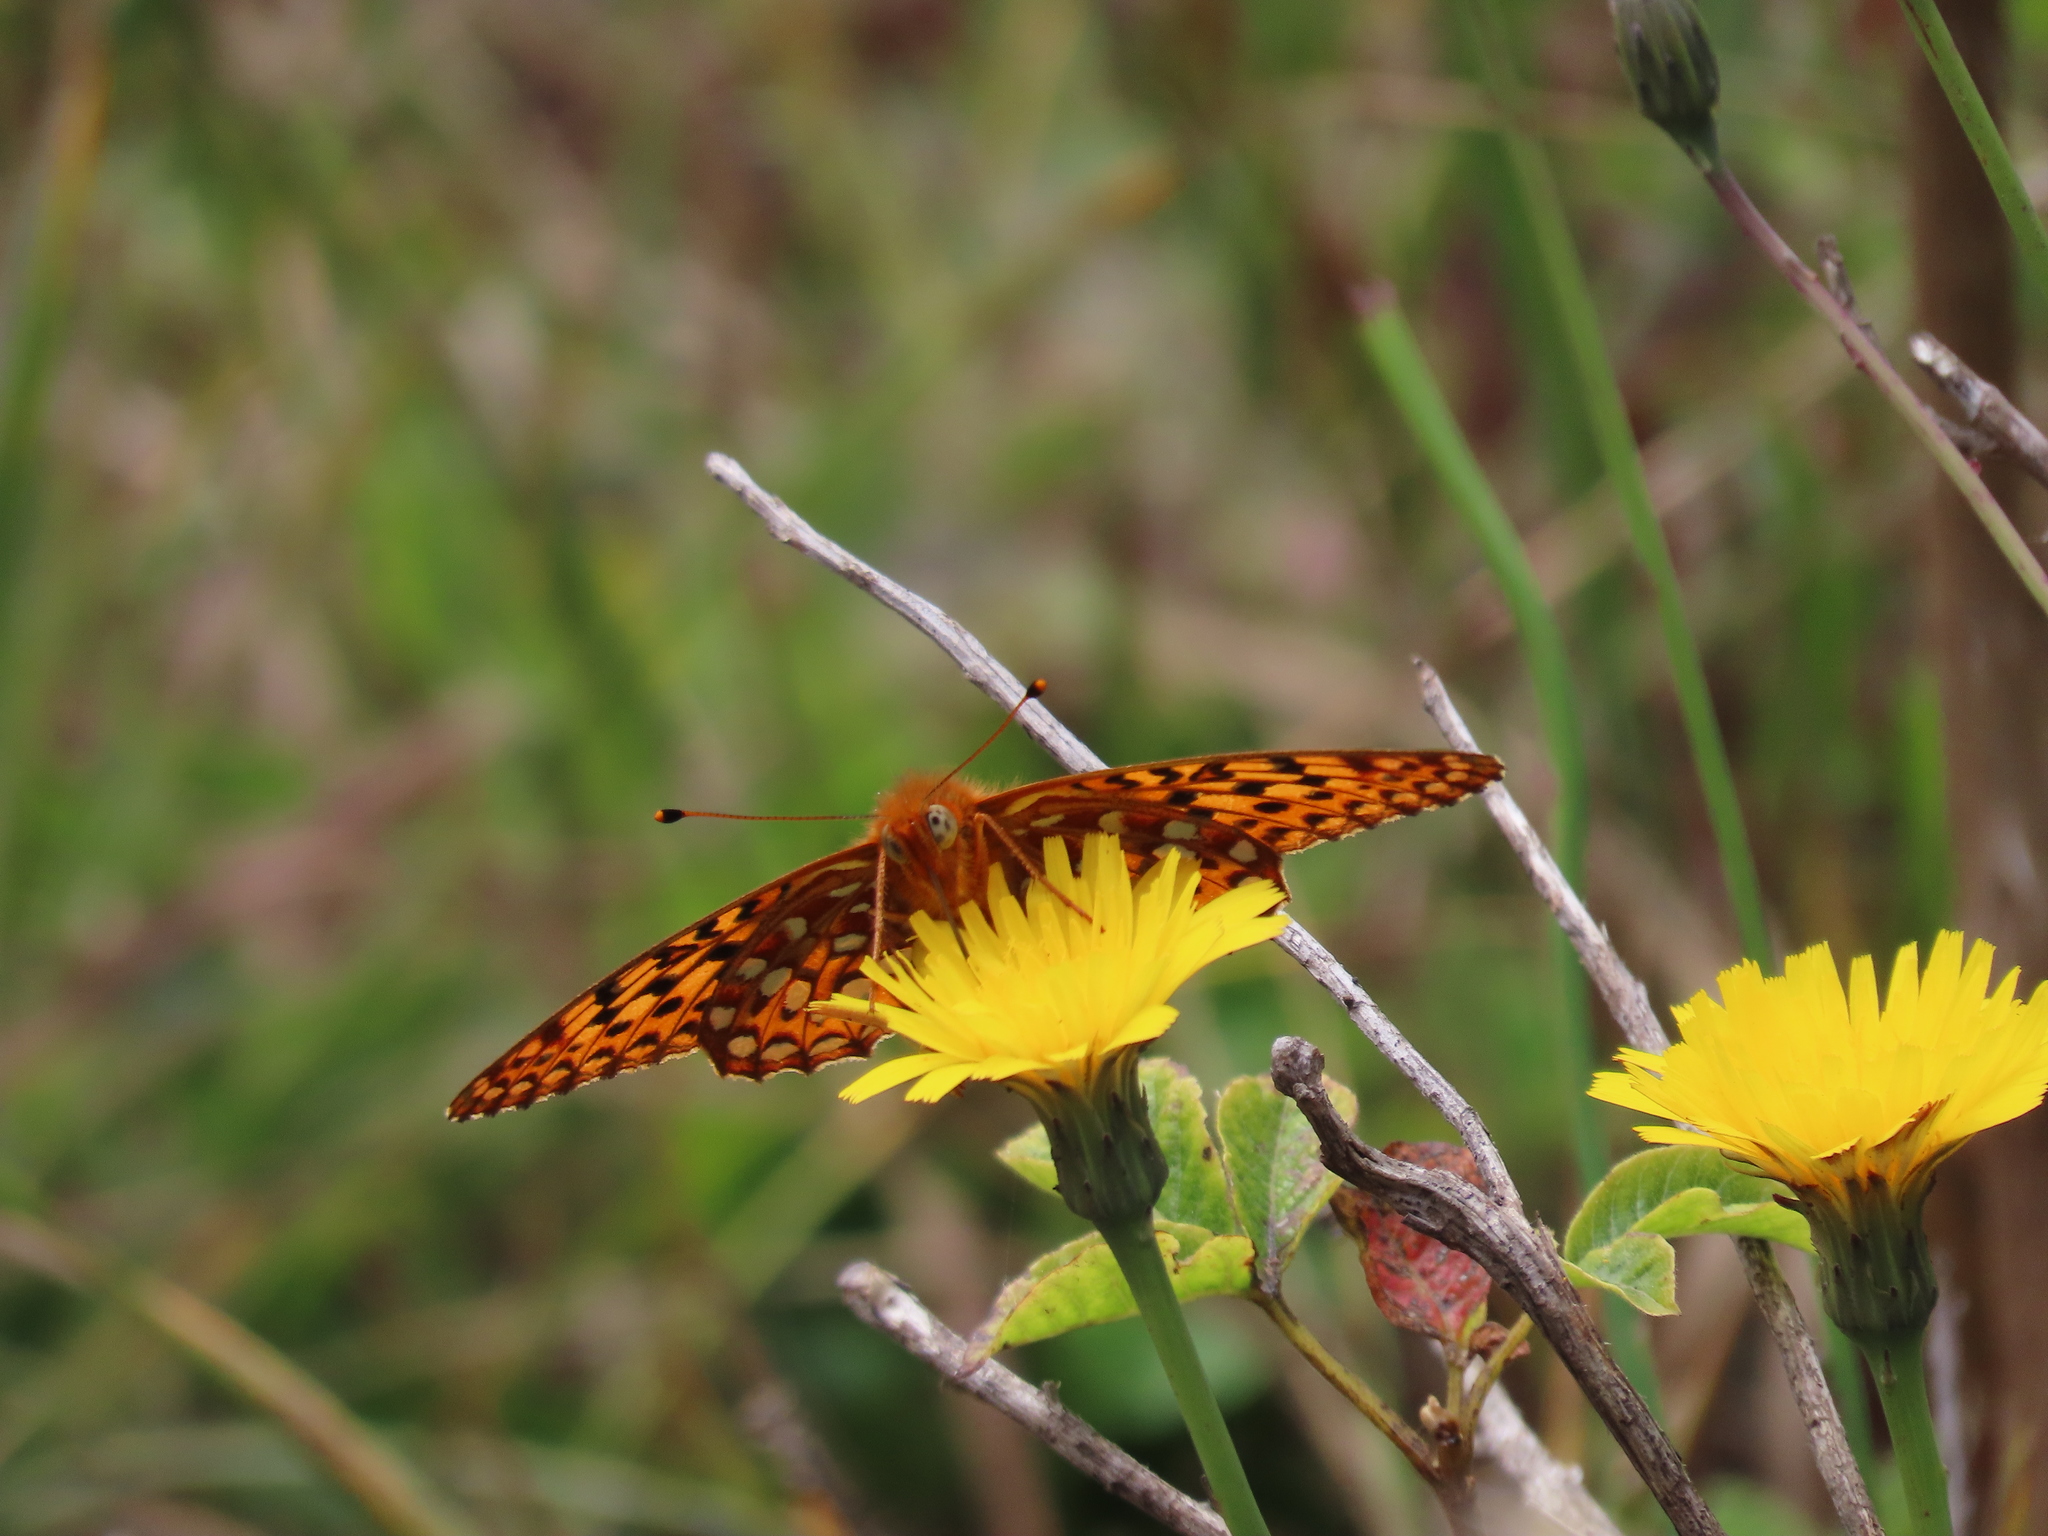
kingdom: Animalia
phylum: Arthropoda
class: Insecta
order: Lepidoptera
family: Nymphalidae
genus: Speyeria
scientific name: Speyeria zerene
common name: Zerene fritillary
